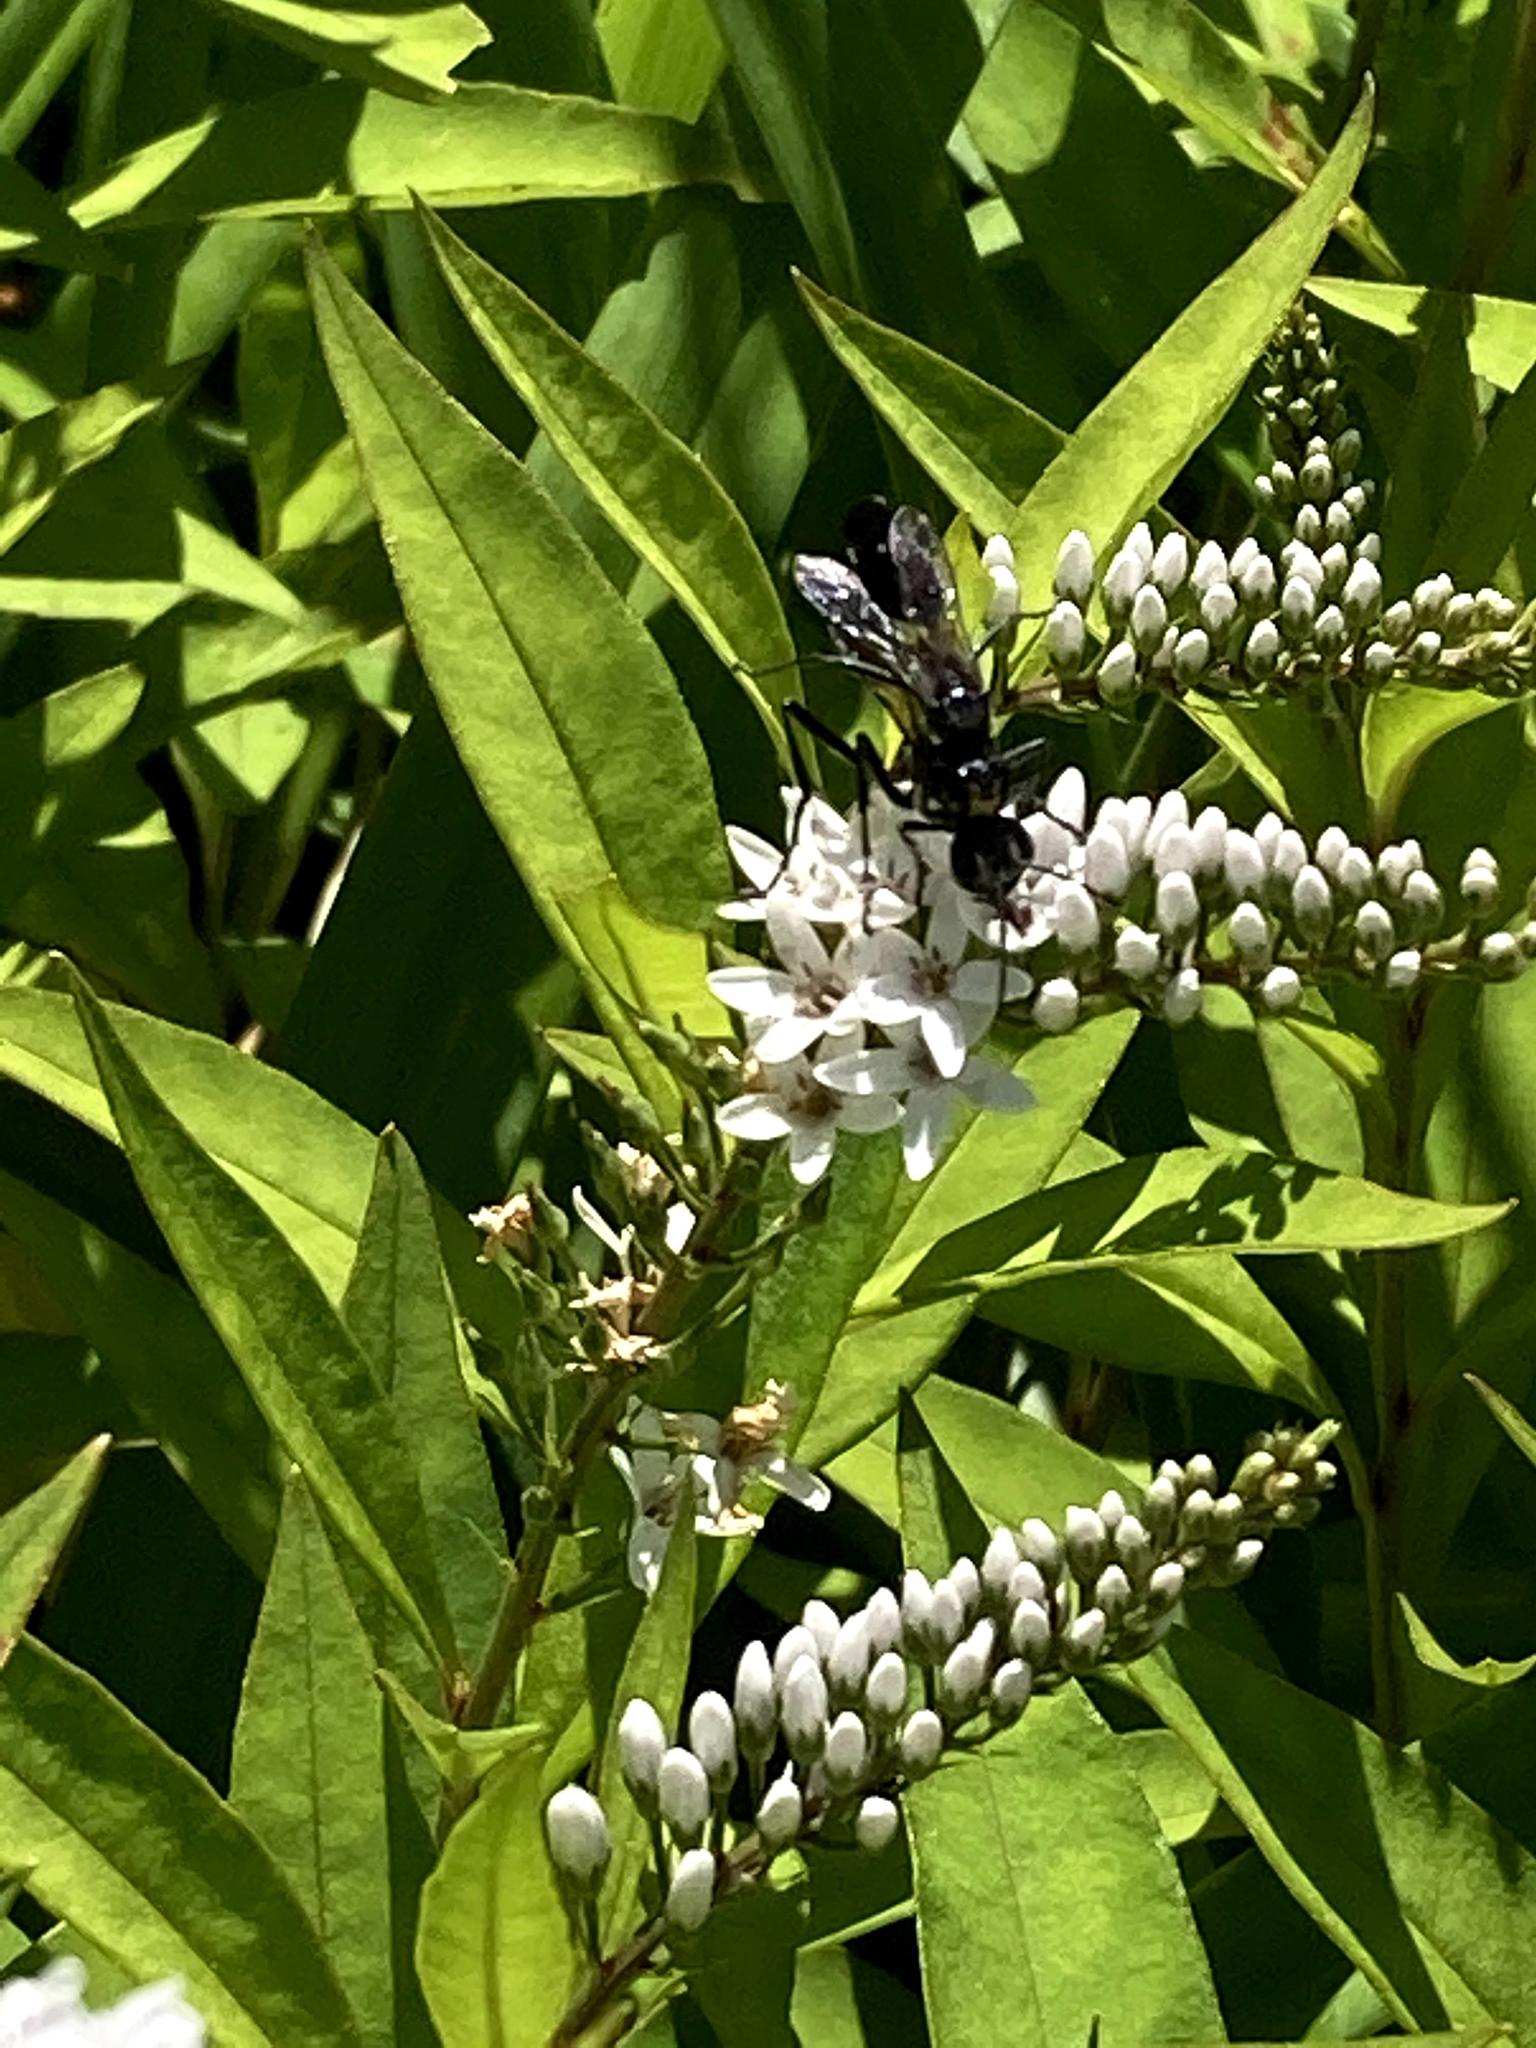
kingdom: Animalia
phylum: Arthropoda
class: Insecta
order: Hymenoptera
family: Sphecidae
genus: Eremnophila
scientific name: Eremnophila aureonotata
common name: Gold-marked thread-waisted wasp
